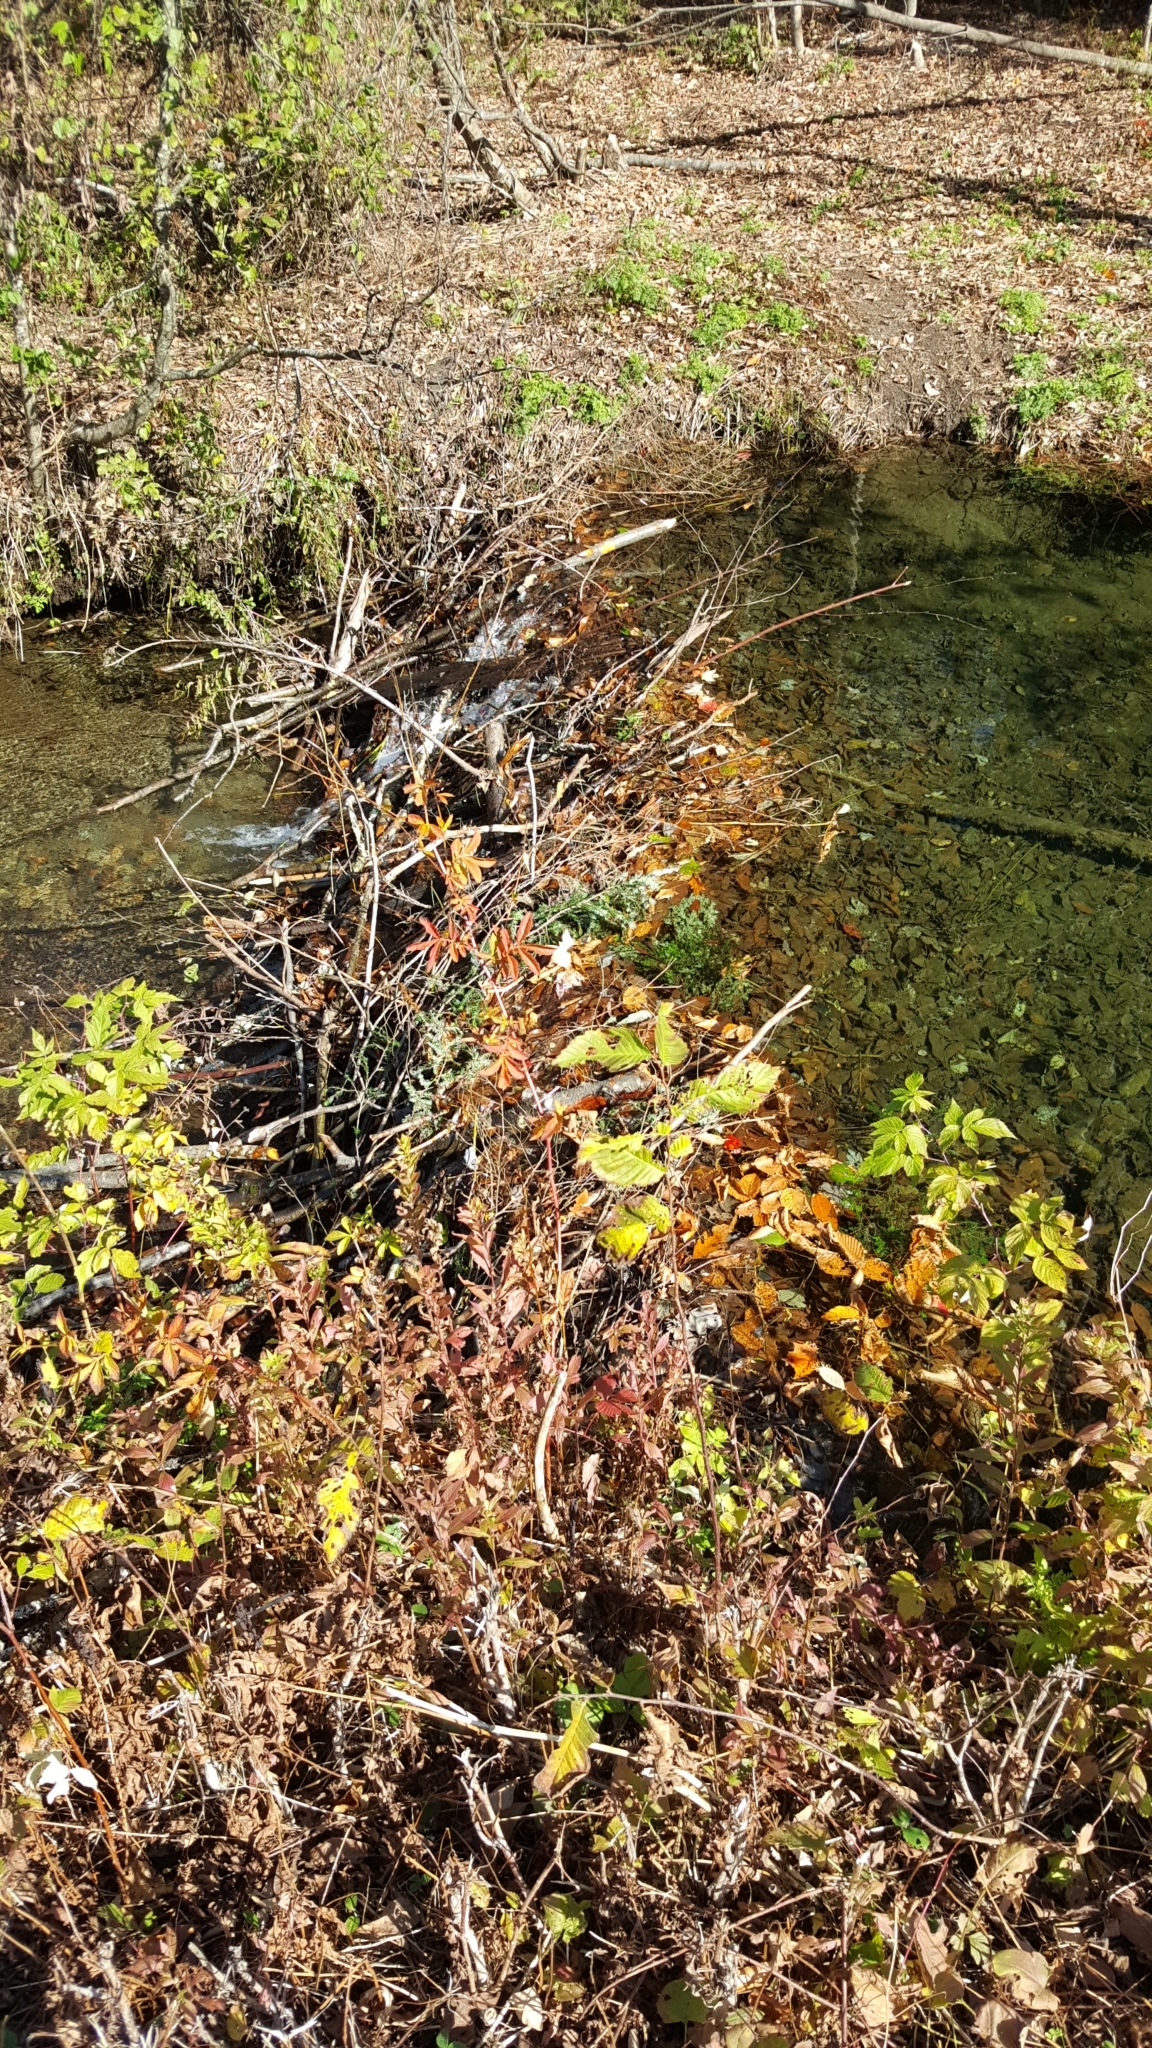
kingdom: Animalia
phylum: Chordata
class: Mammalia
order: Rodentia
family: Castoridae
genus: Castor
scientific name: Castor canadensis
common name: American beaver
